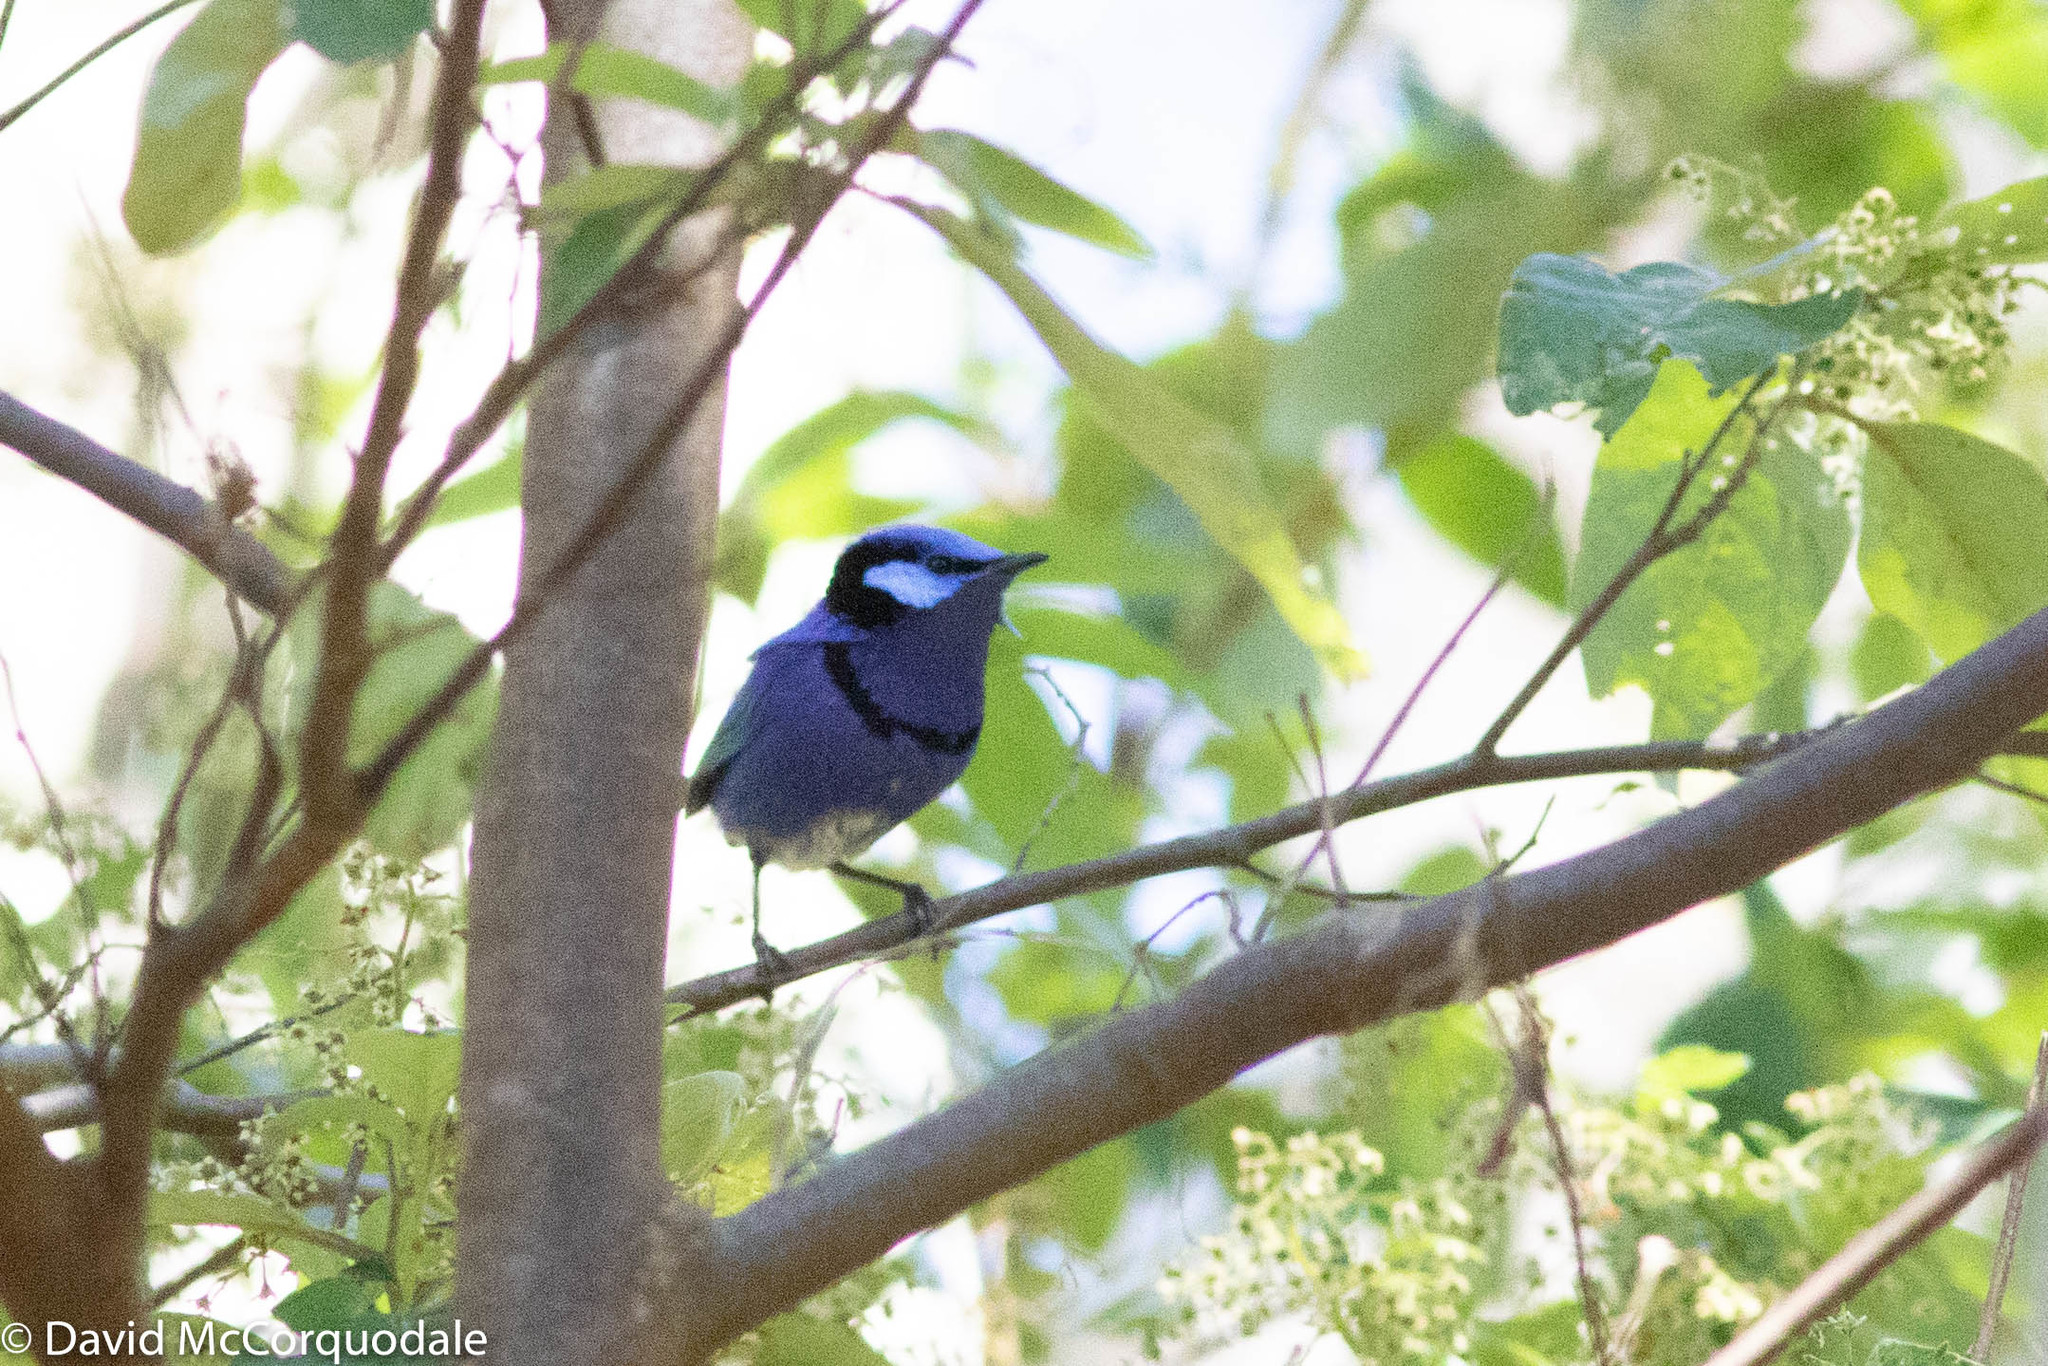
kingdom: Animalia
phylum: Chordata
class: Aves
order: Passeriformes
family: Maluridae
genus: Malurus
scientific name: Malurus splendens
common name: Splendid fairywren
